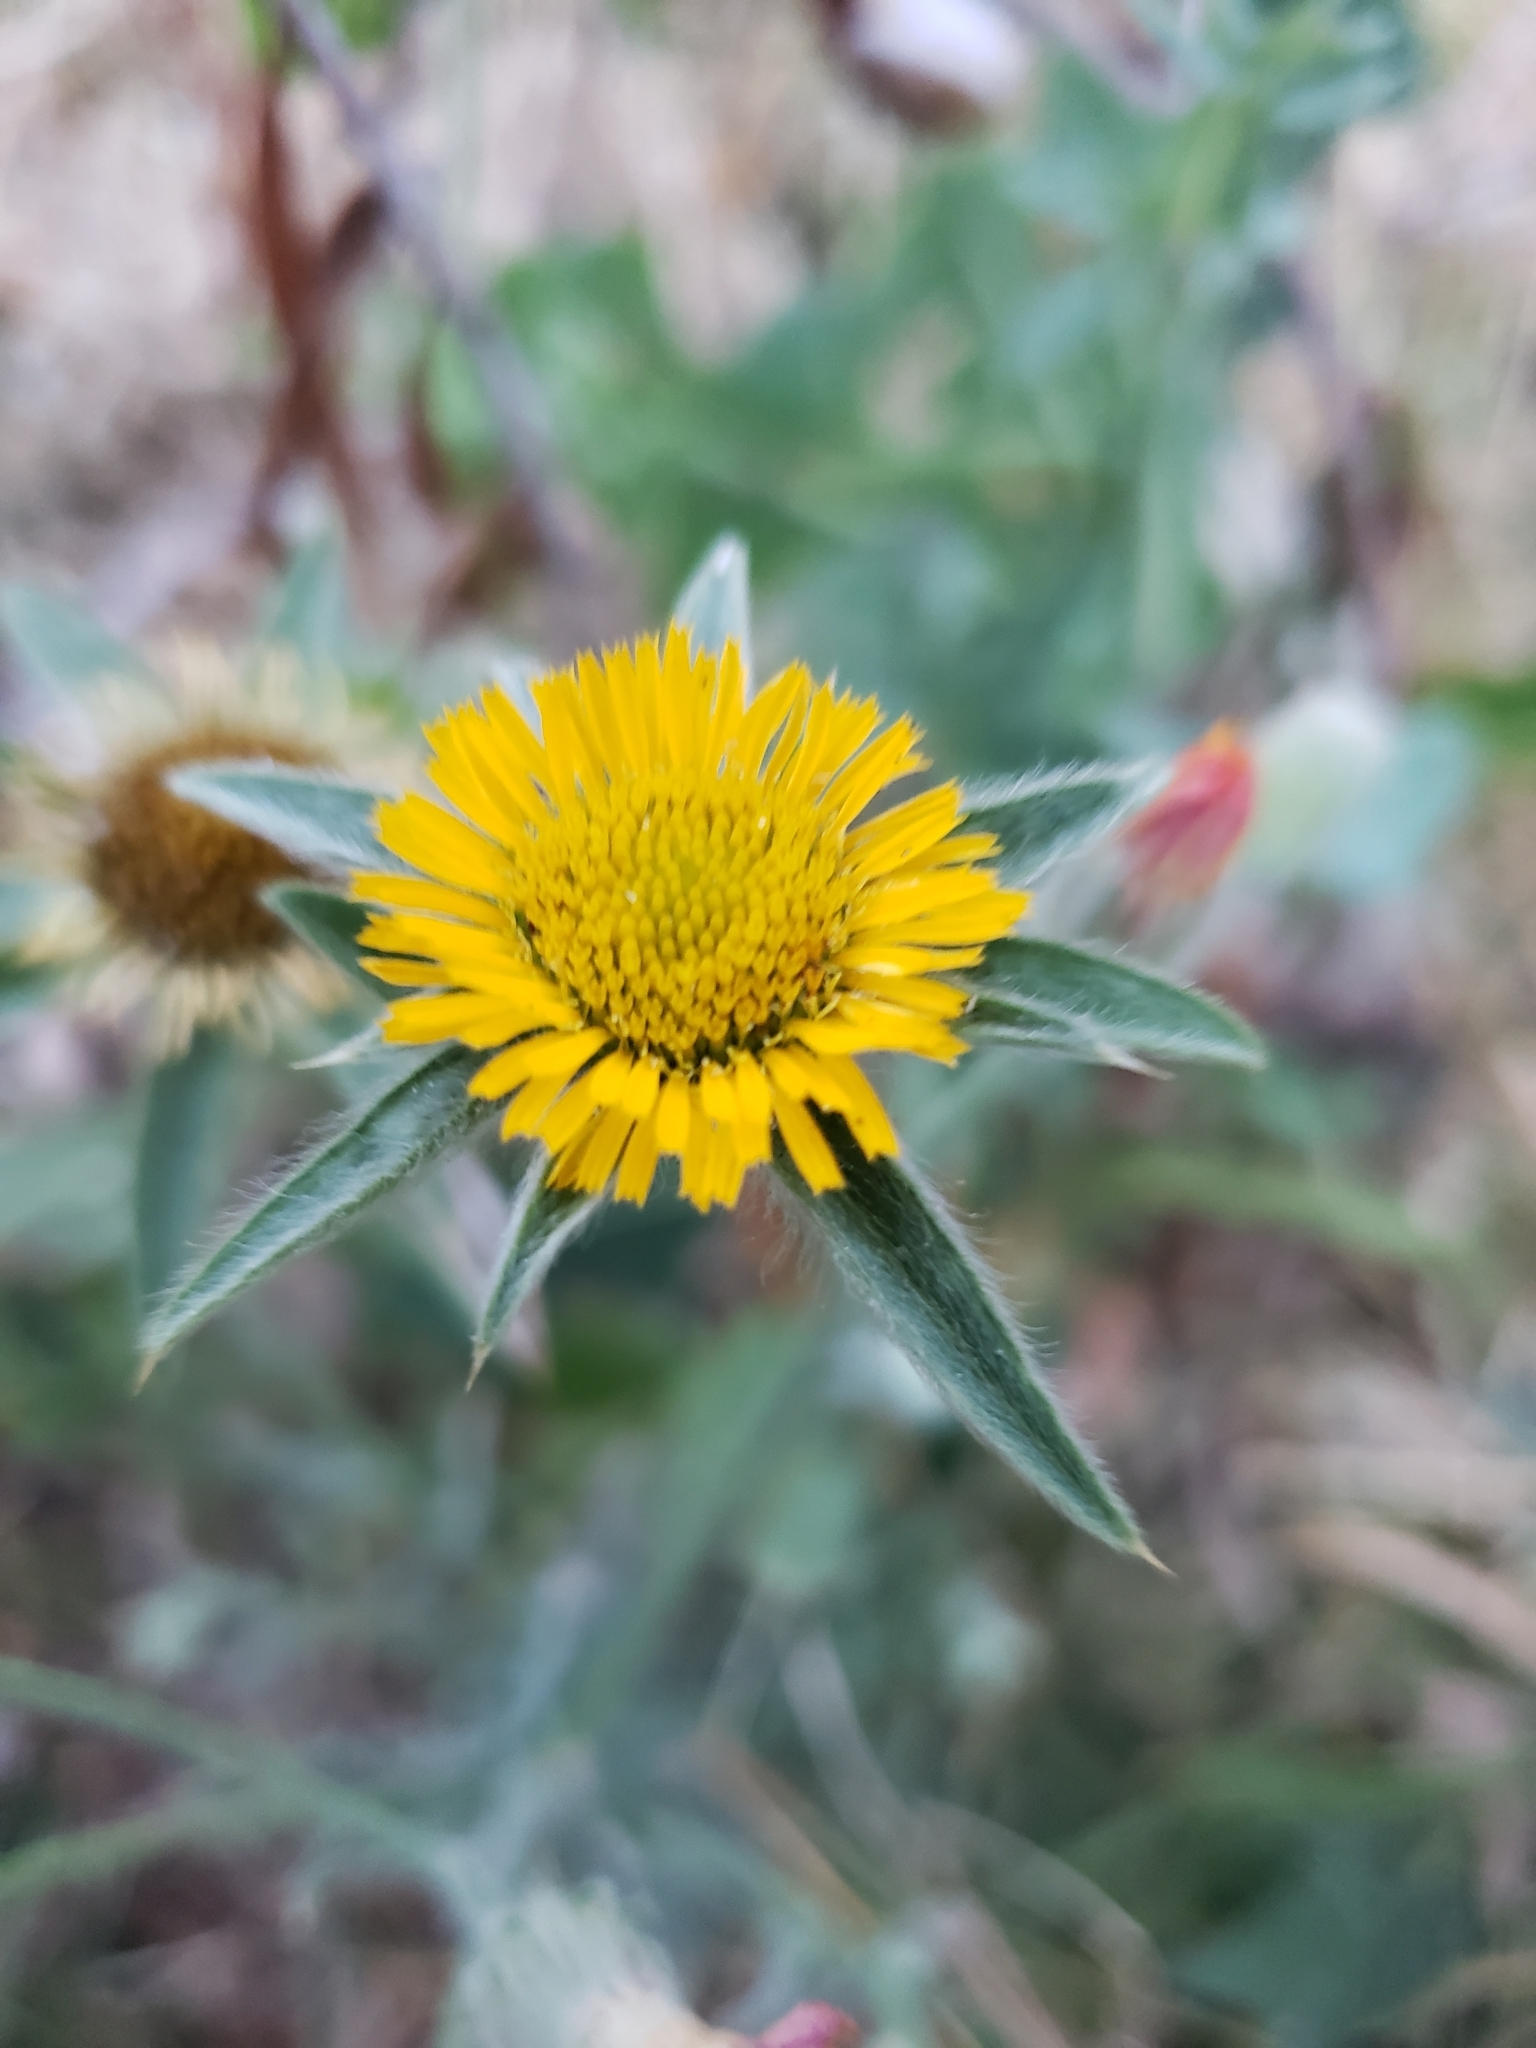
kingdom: Plantae
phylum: Tracheophyta
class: Magnoliopsida
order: Asterales
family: Asteraceae
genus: Pallenis
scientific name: Pallenis spinosa
